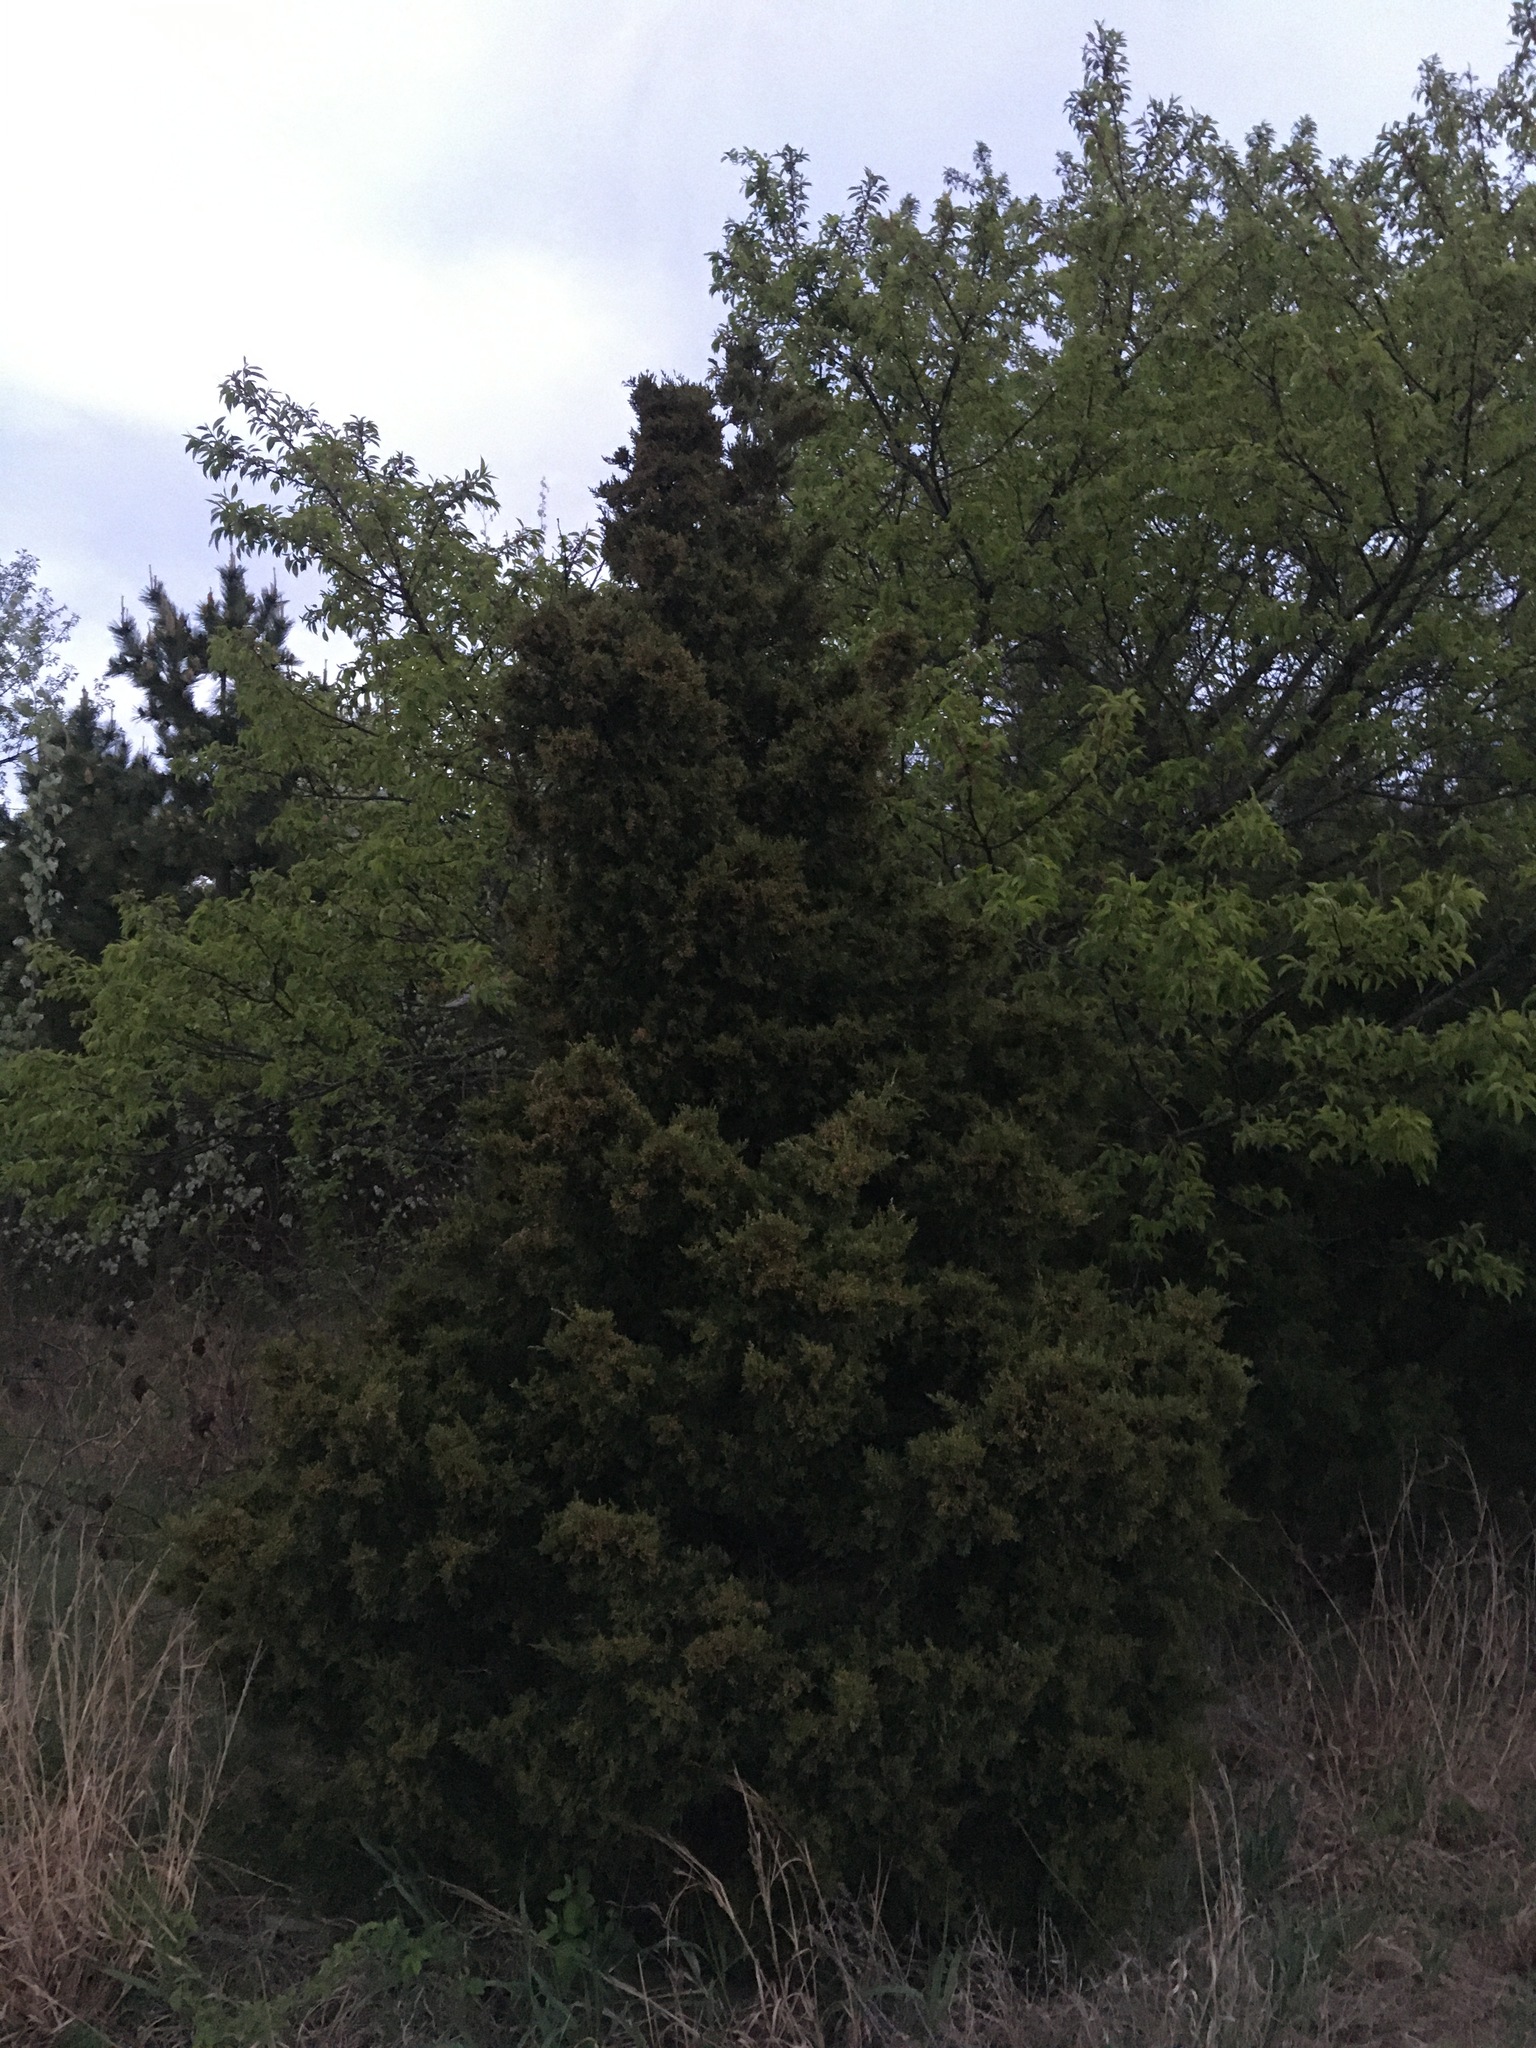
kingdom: Plantae
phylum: Tracheophyta
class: Pinopsida
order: Pinales
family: Cupressaceae
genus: Juniperus
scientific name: Juniperus virginiana
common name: Red juniper
